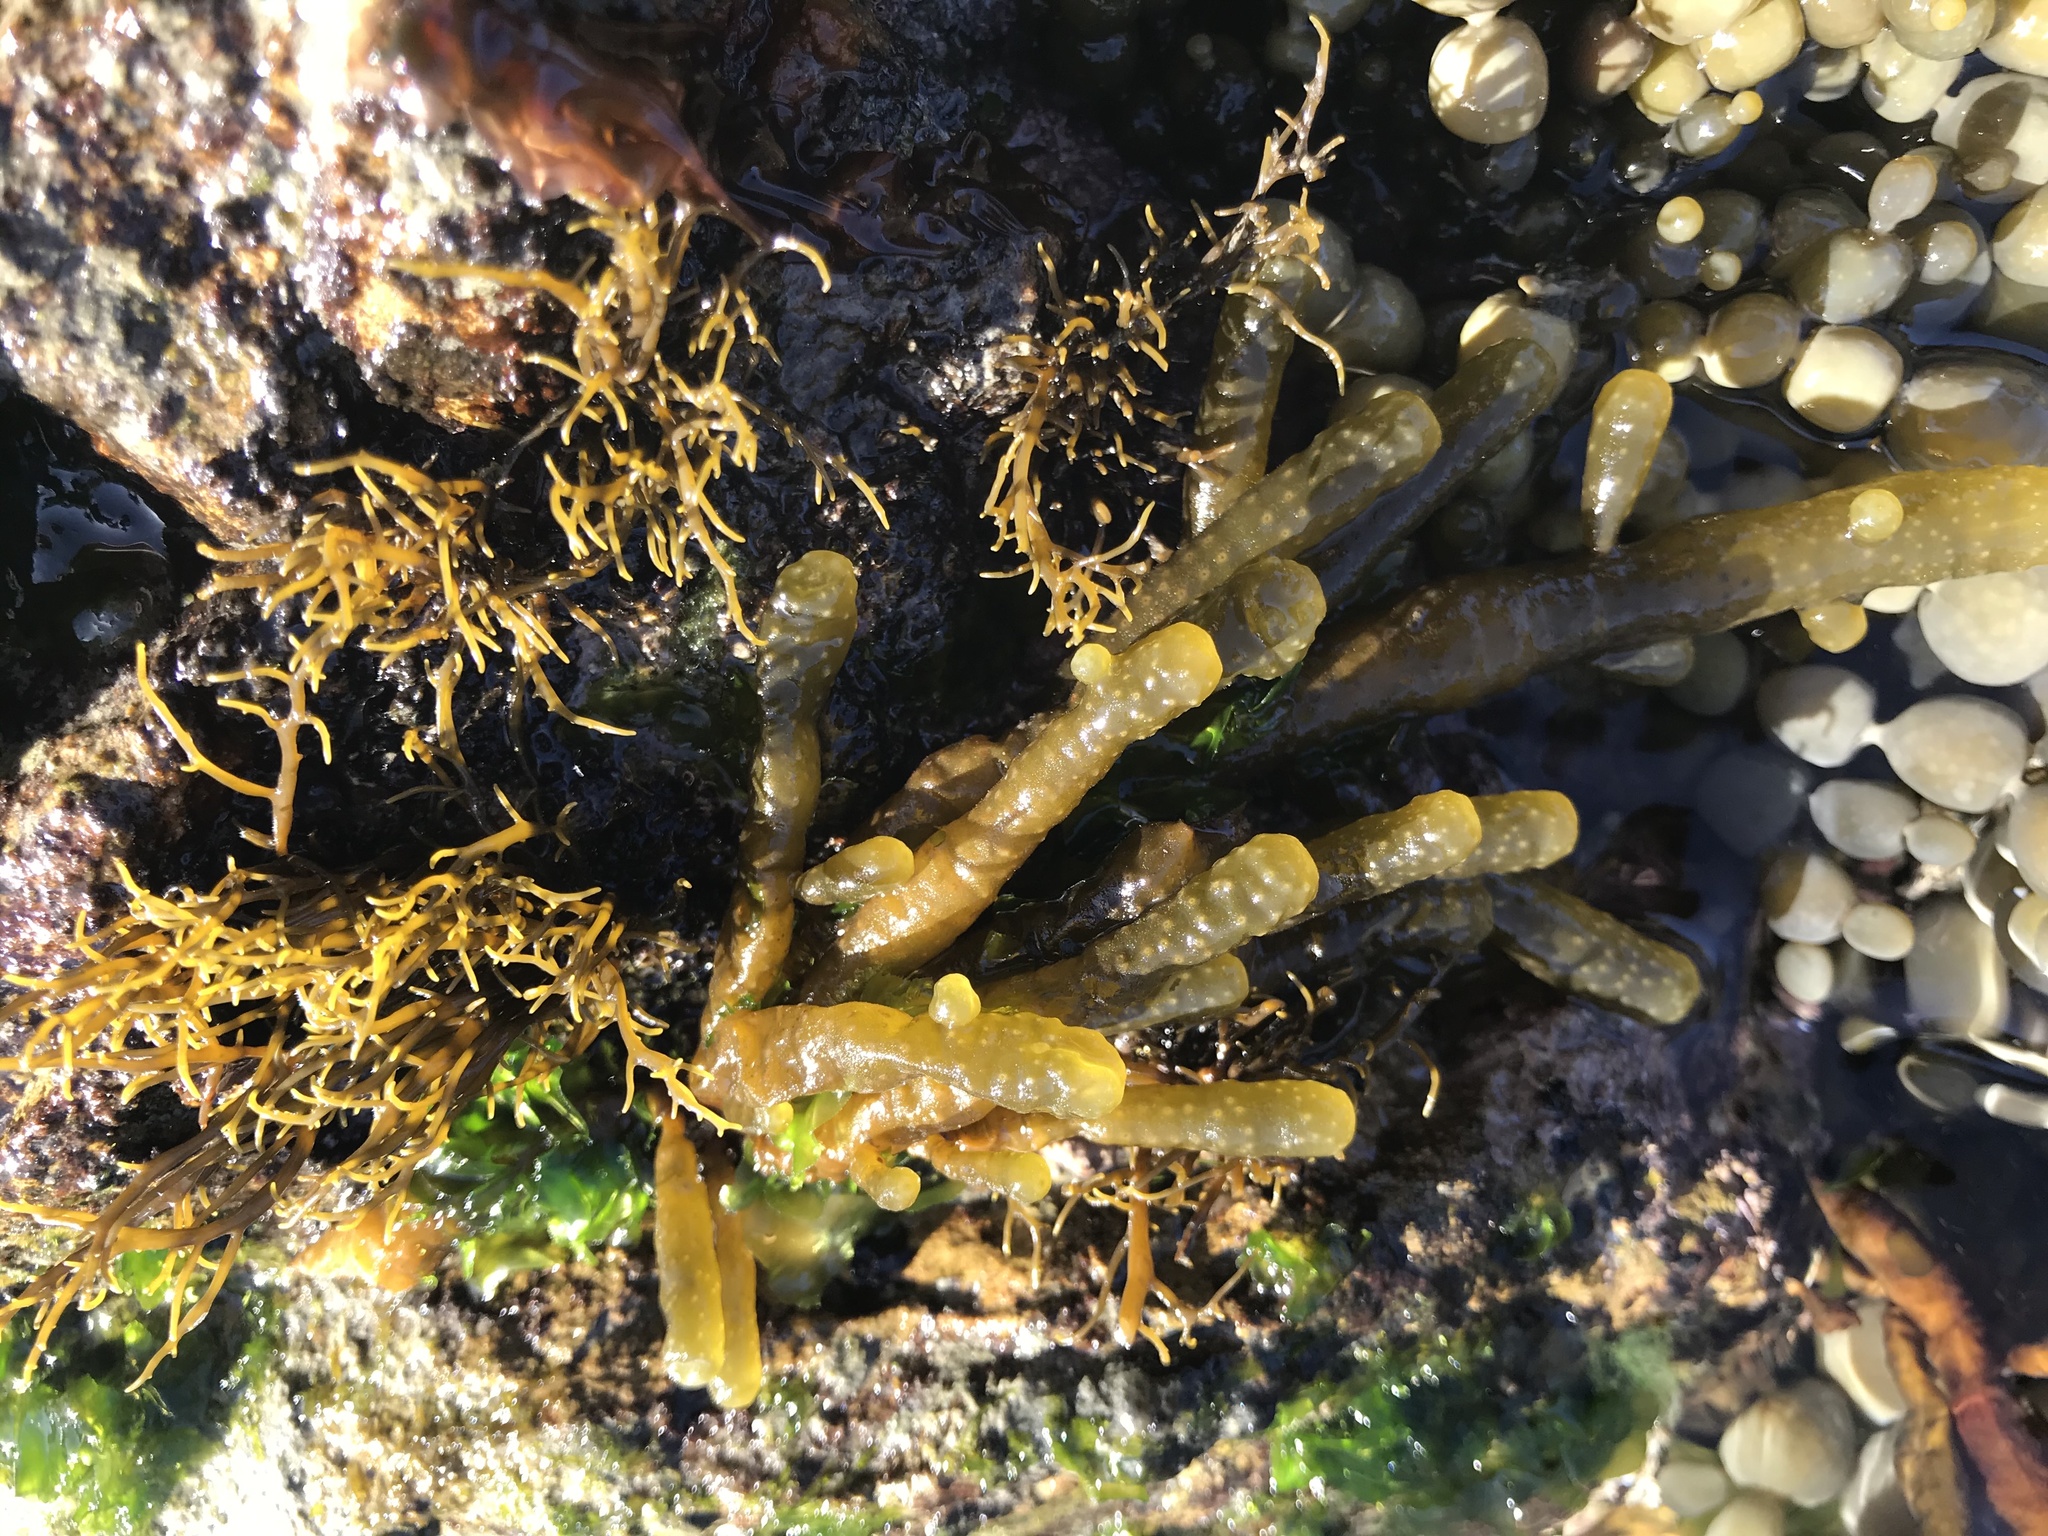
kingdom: Chromista
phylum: Ochrophyta
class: Phaeophyceae
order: Scytothamnales
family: Splachnidiaceae
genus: Splachnidium
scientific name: Splachnidium rugosum
